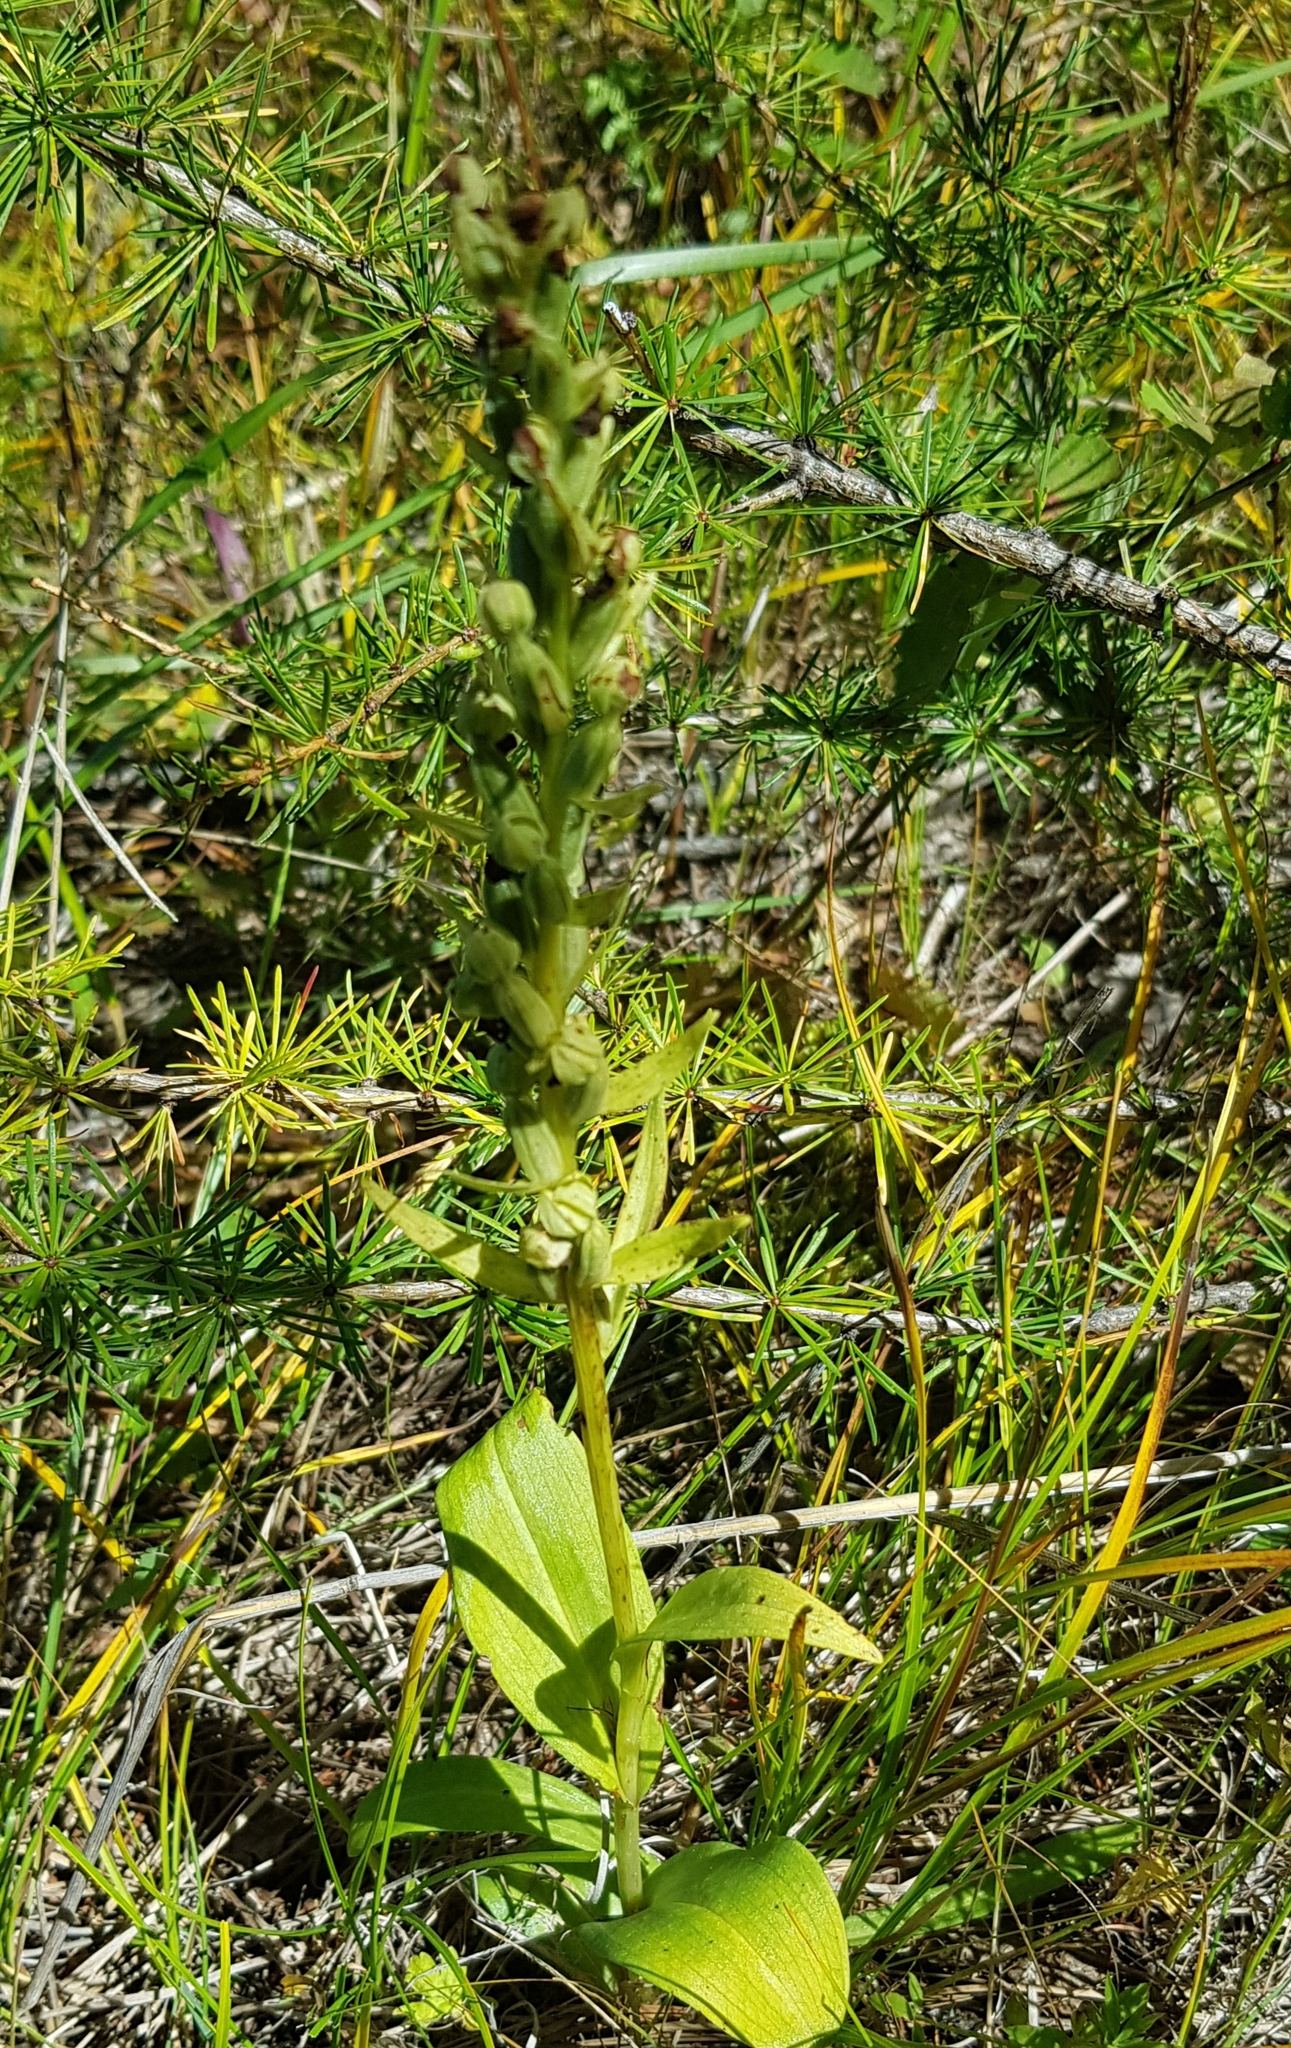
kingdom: Plantae
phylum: Tracheophyta
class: Liliopsida
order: Asparagales
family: Orchidaceae
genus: Dactylorhiza
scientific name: Dactylorhiza viridis
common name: Longbract frog orchid
